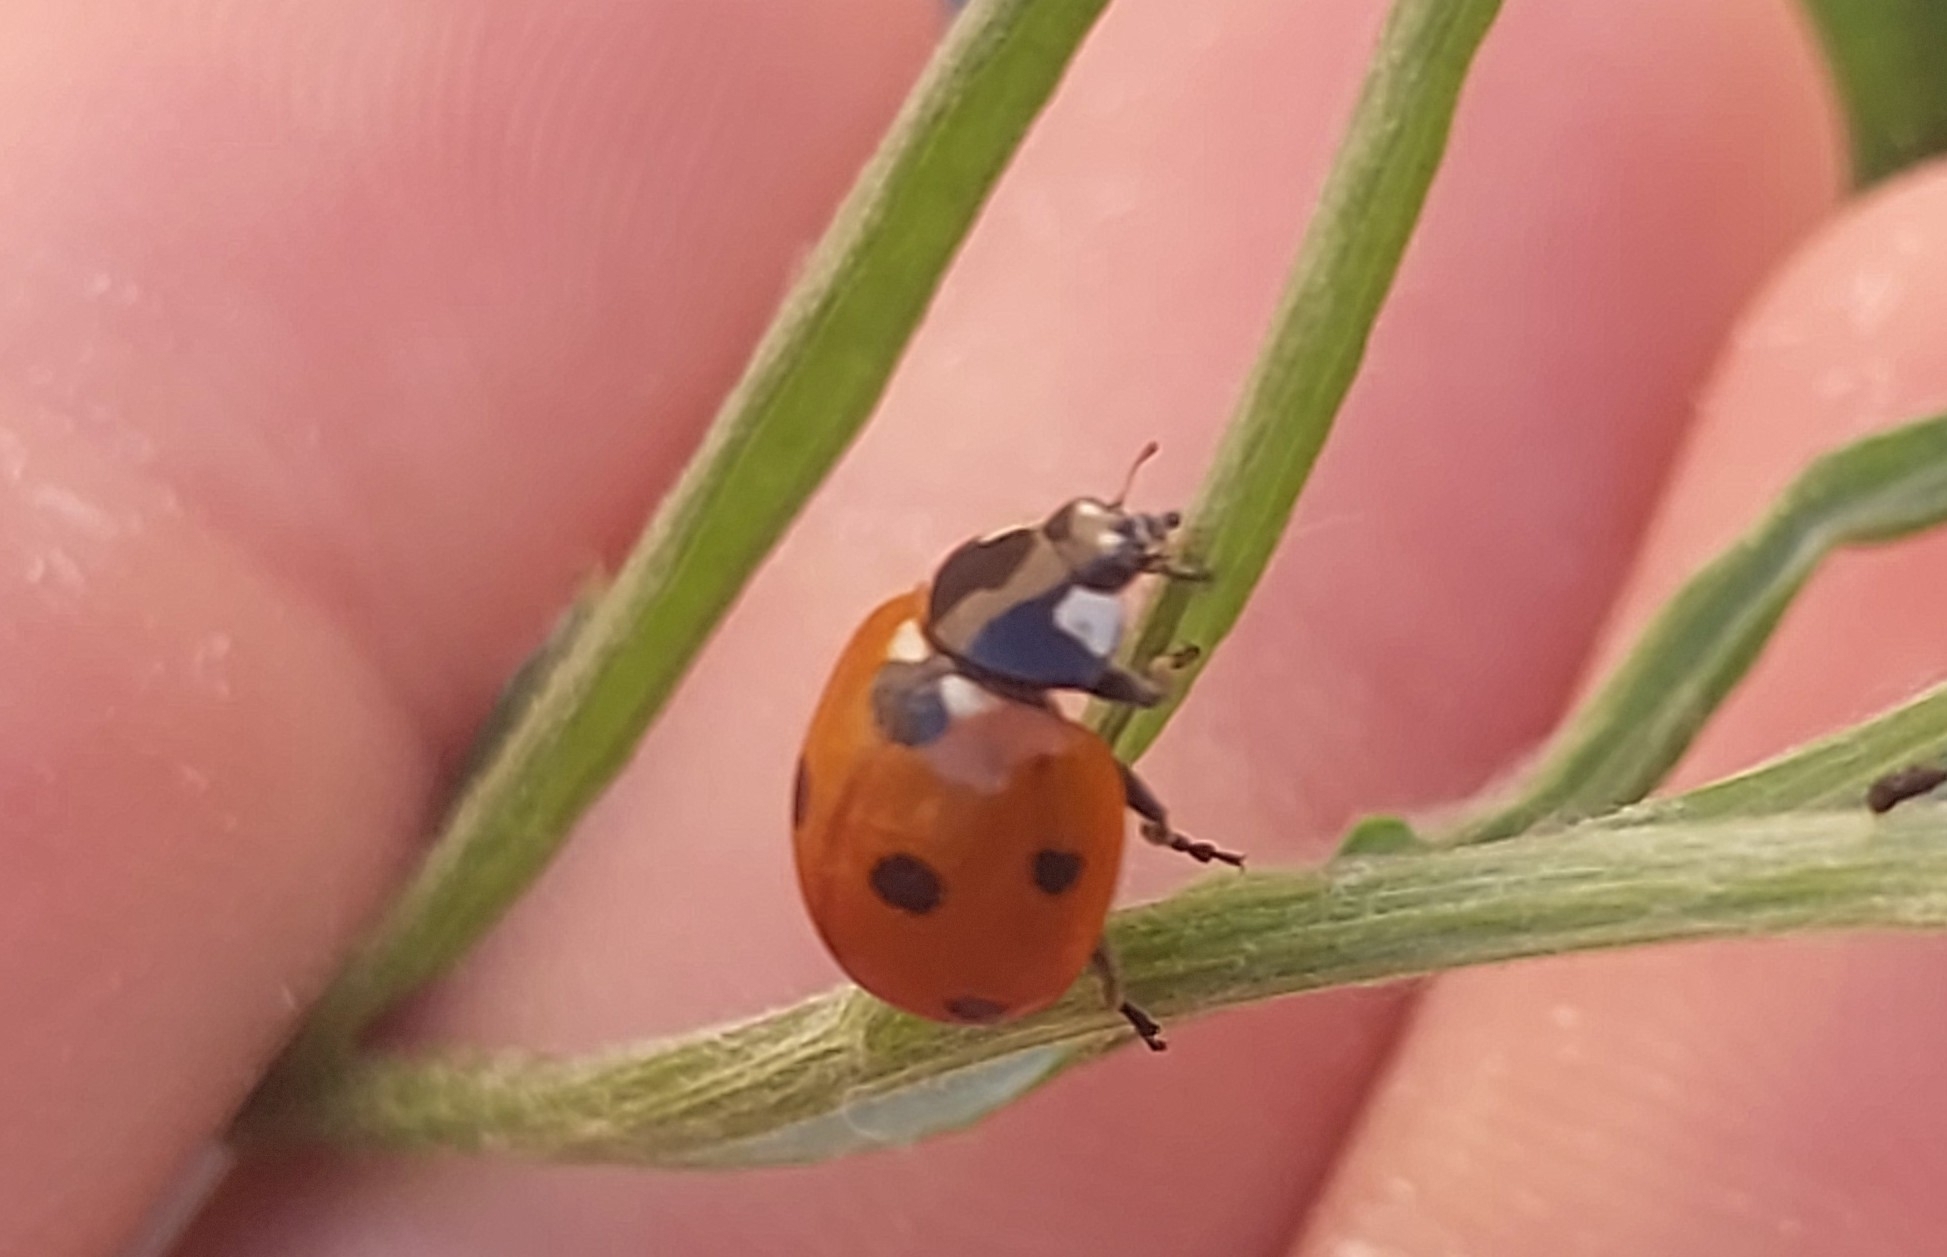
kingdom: Animalia
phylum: Arthropoda
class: Insecta
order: Coleoptera
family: Coccinellidae
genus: Coccinella
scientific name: Coccinella septempunctata
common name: Sevenspotted lady beetle
